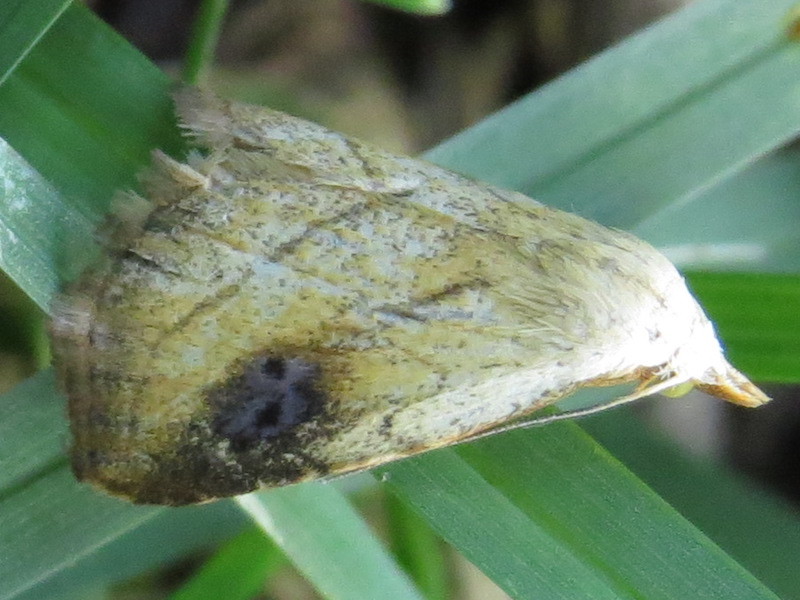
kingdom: Animalia
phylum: Arthropoda
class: Insecta
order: Lepidoptera
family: Erebidae
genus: Rivula
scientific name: Rivula propinqualis
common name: Spotted grass moth
